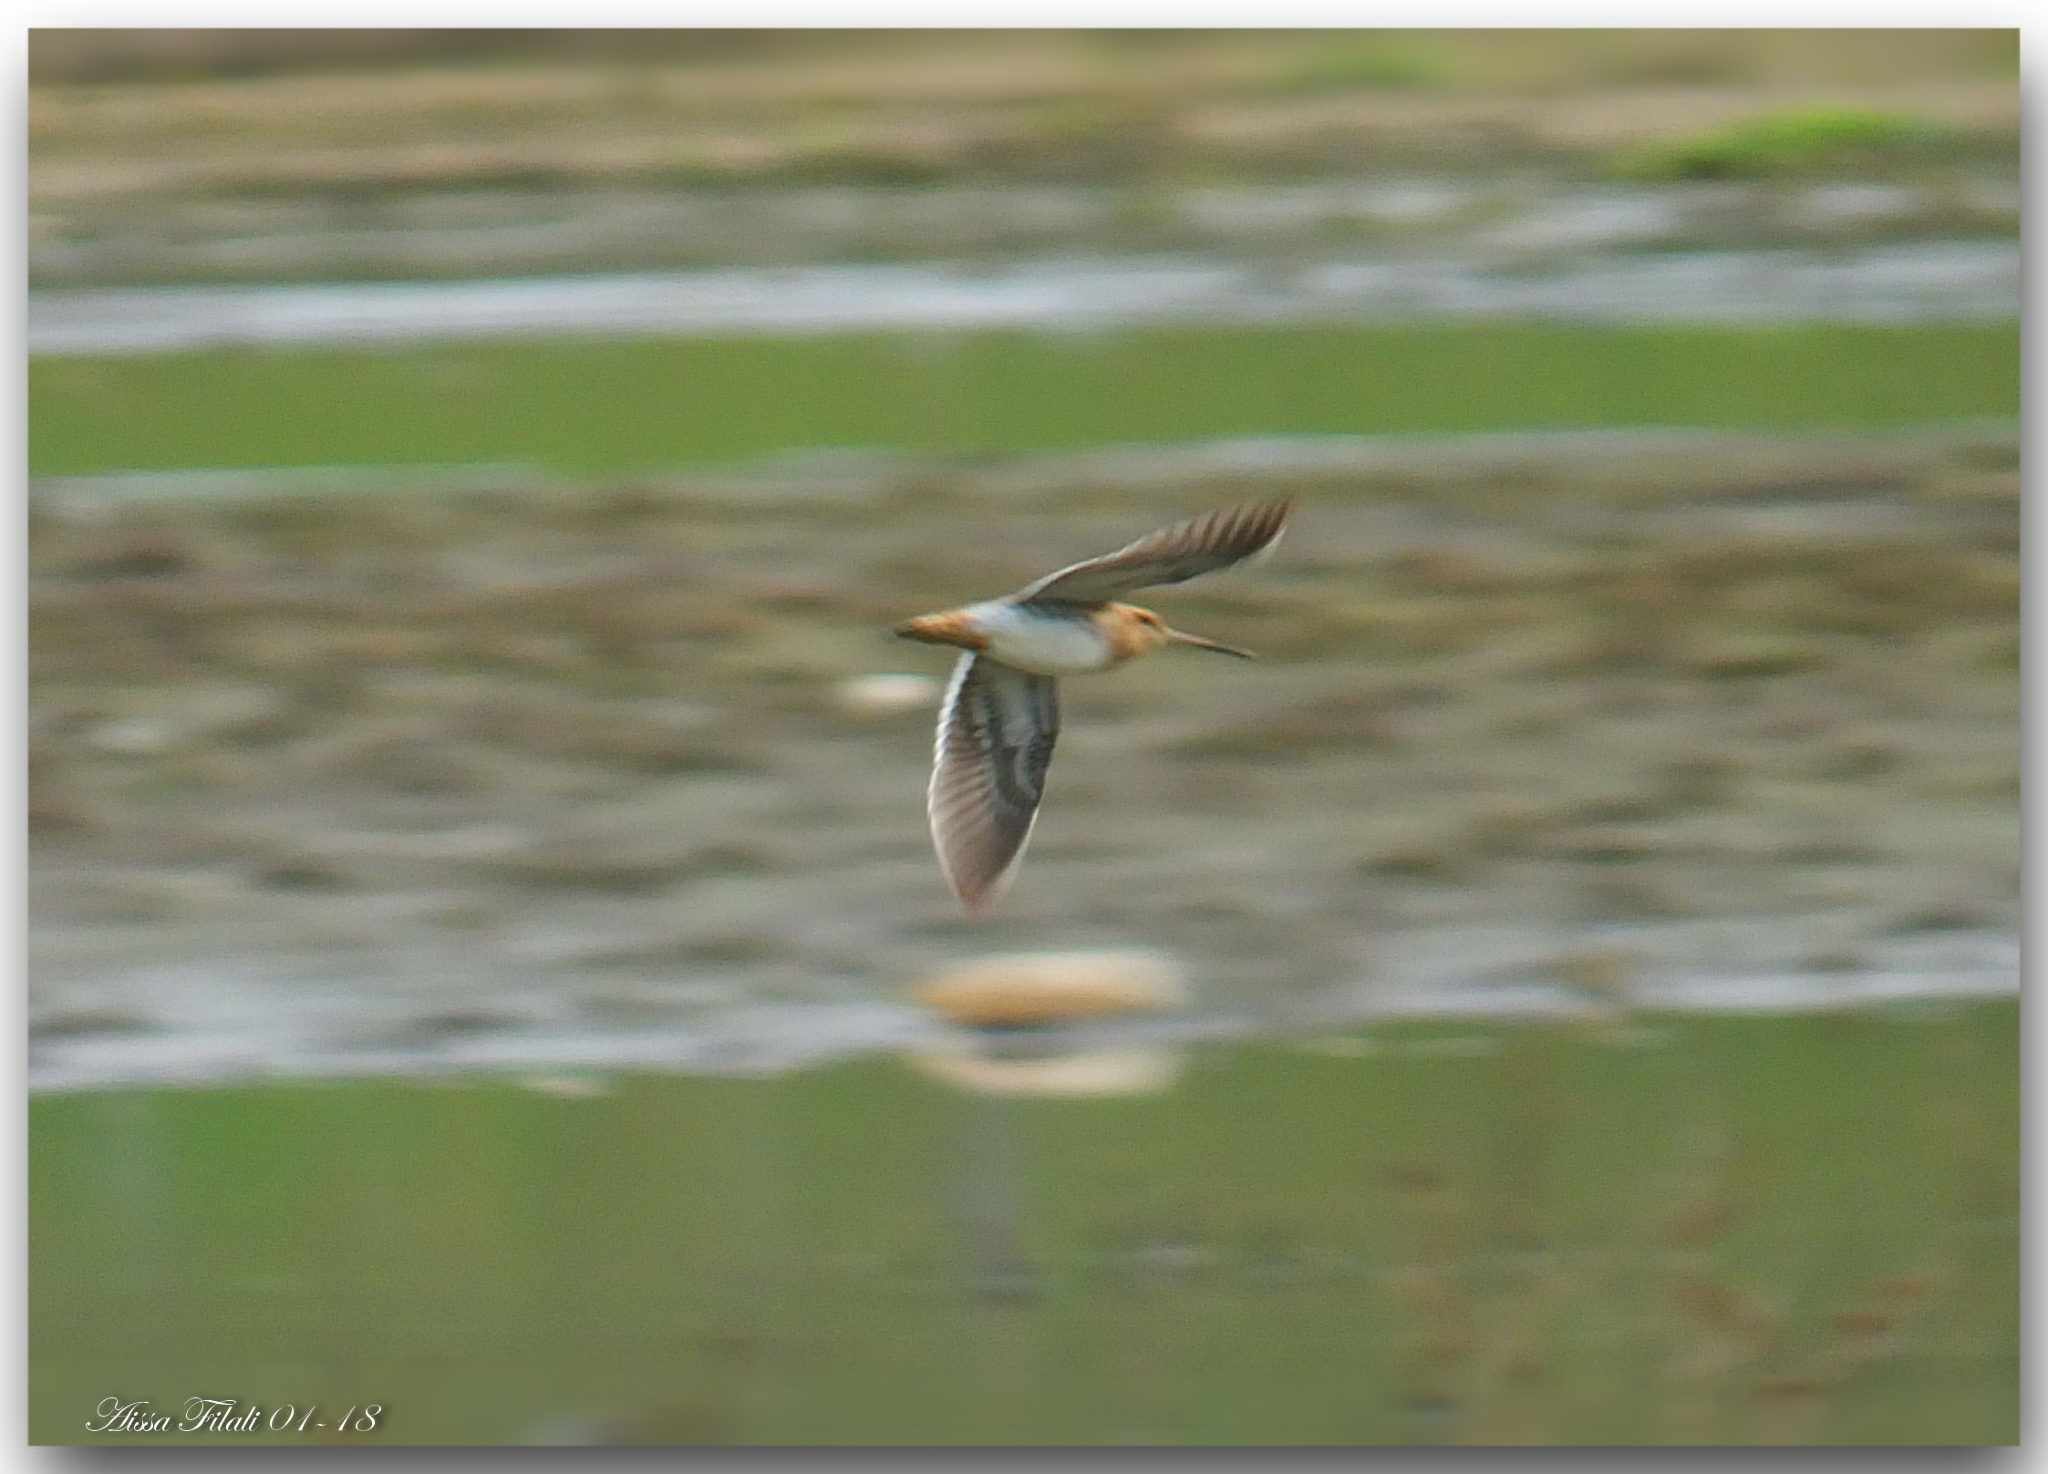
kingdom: Animalia
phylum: Chordata
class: Aves
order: Charadriiformes
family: Scolopacidae
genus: Lymnocryptes
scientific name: Lymnocryptes minimus
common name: Jack snipe
